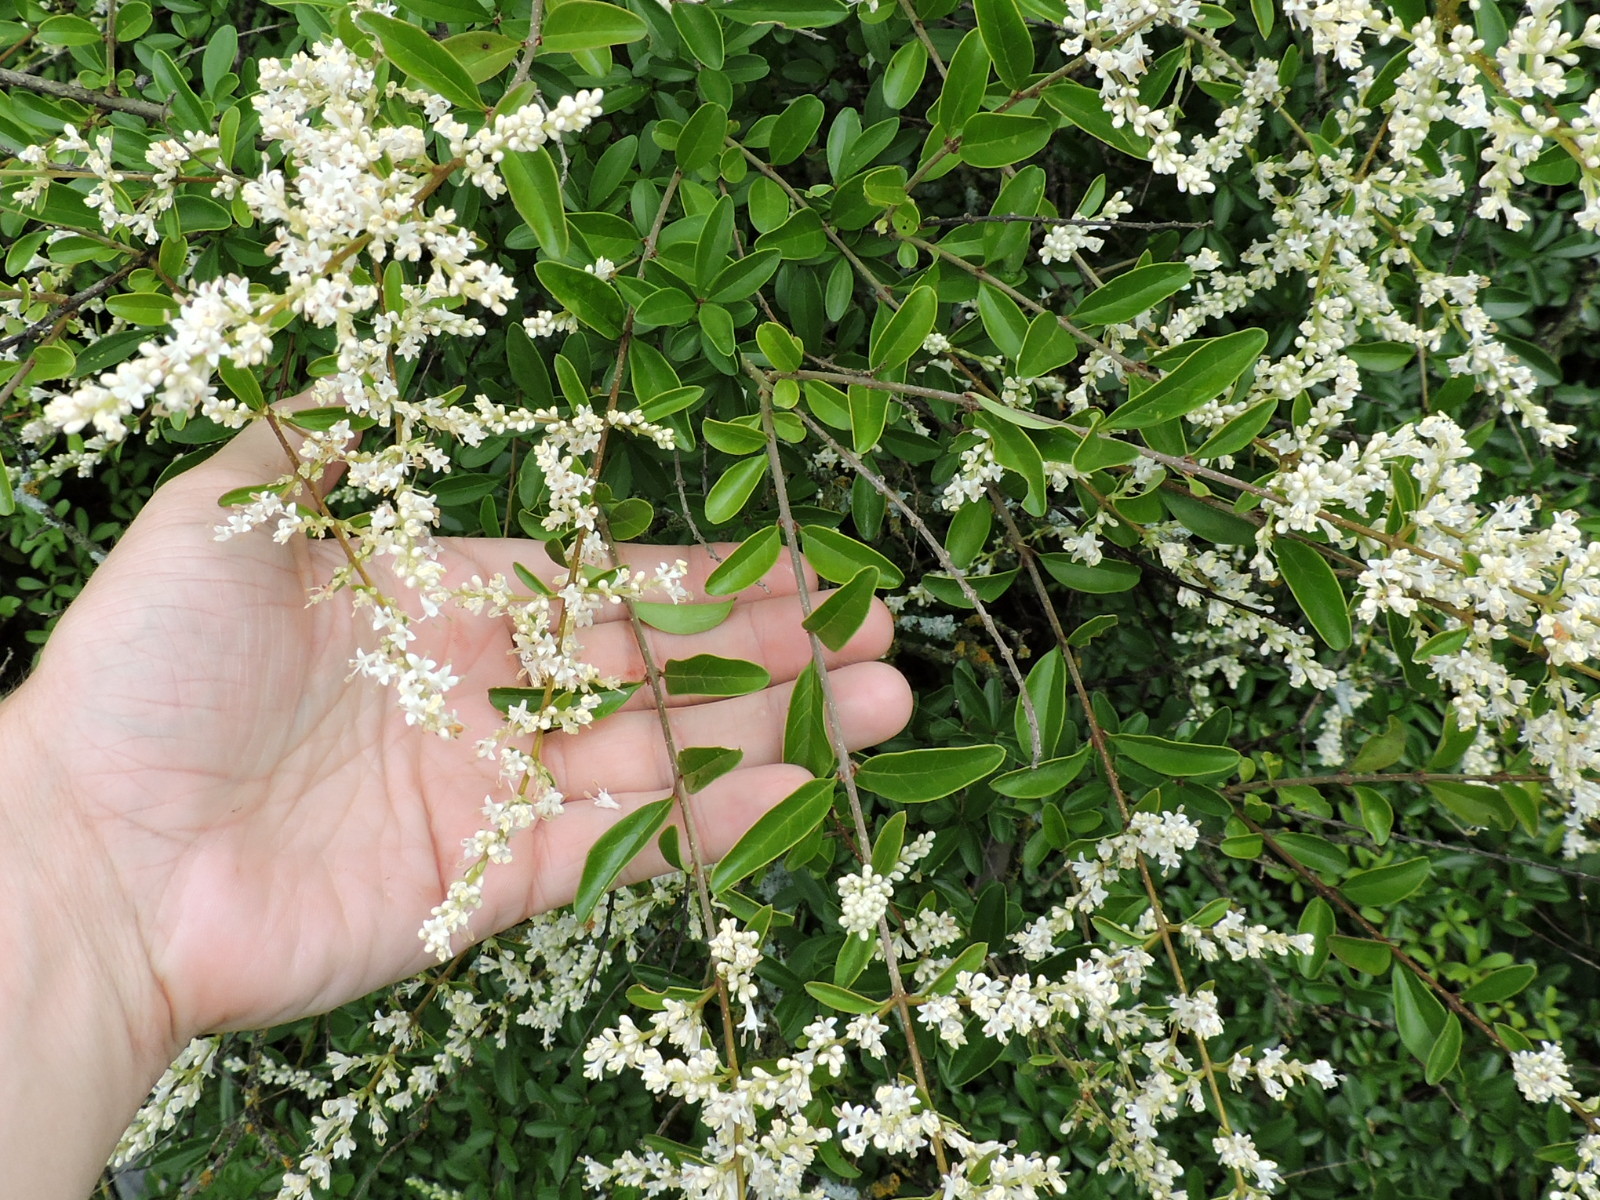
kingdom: Plantae
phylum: Tracheophyta
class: Magnoliopsida
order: Lamiales
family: Oleaceae
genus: Ligustrum
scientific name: Ligustrum quihoui
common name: Waxyleaf privet
